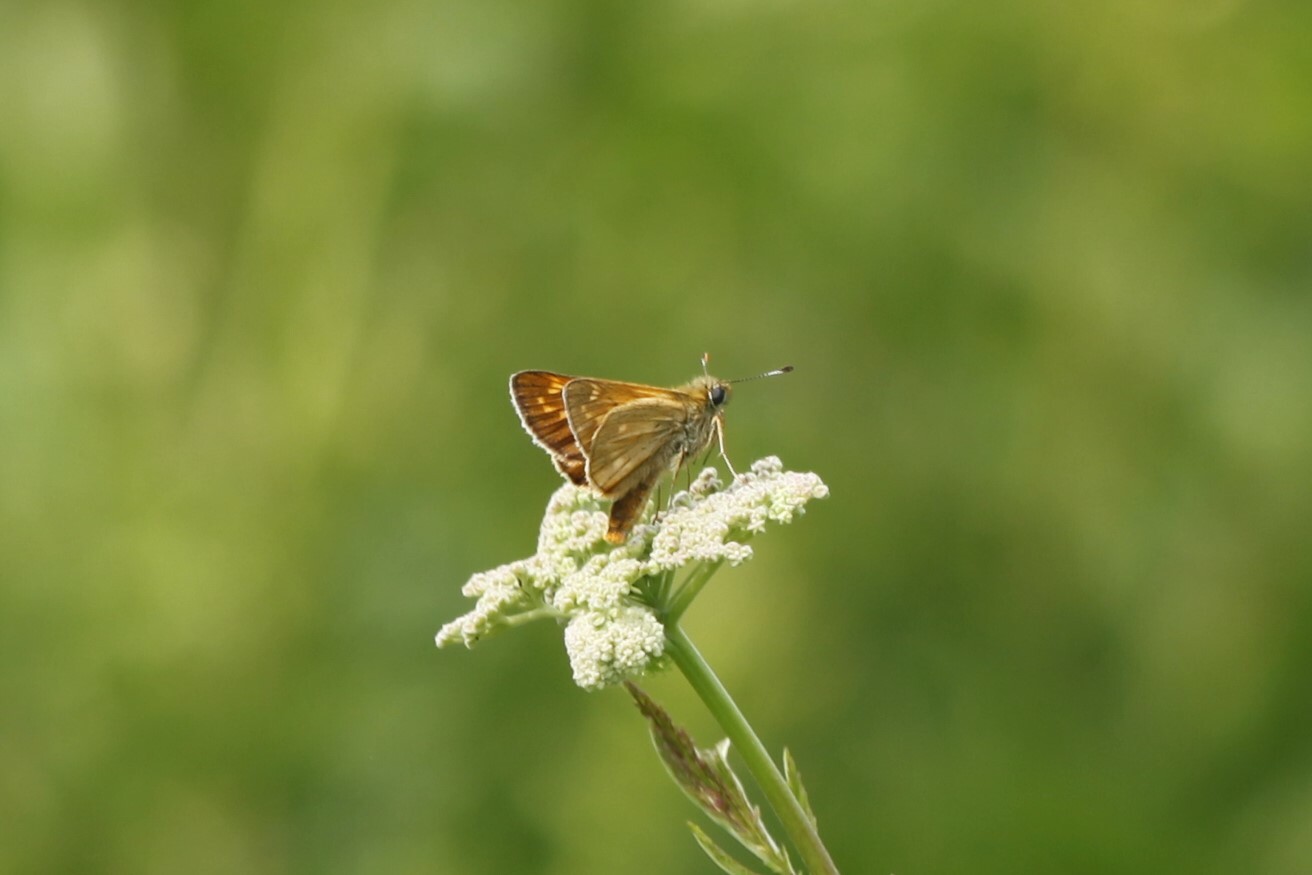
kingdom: Animalia
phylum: Arthropoda
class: Insecta
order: Lepidoptera
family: Hesperiidae
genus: Ochlodes
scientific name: Ochlodes venata
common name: Large skipper
